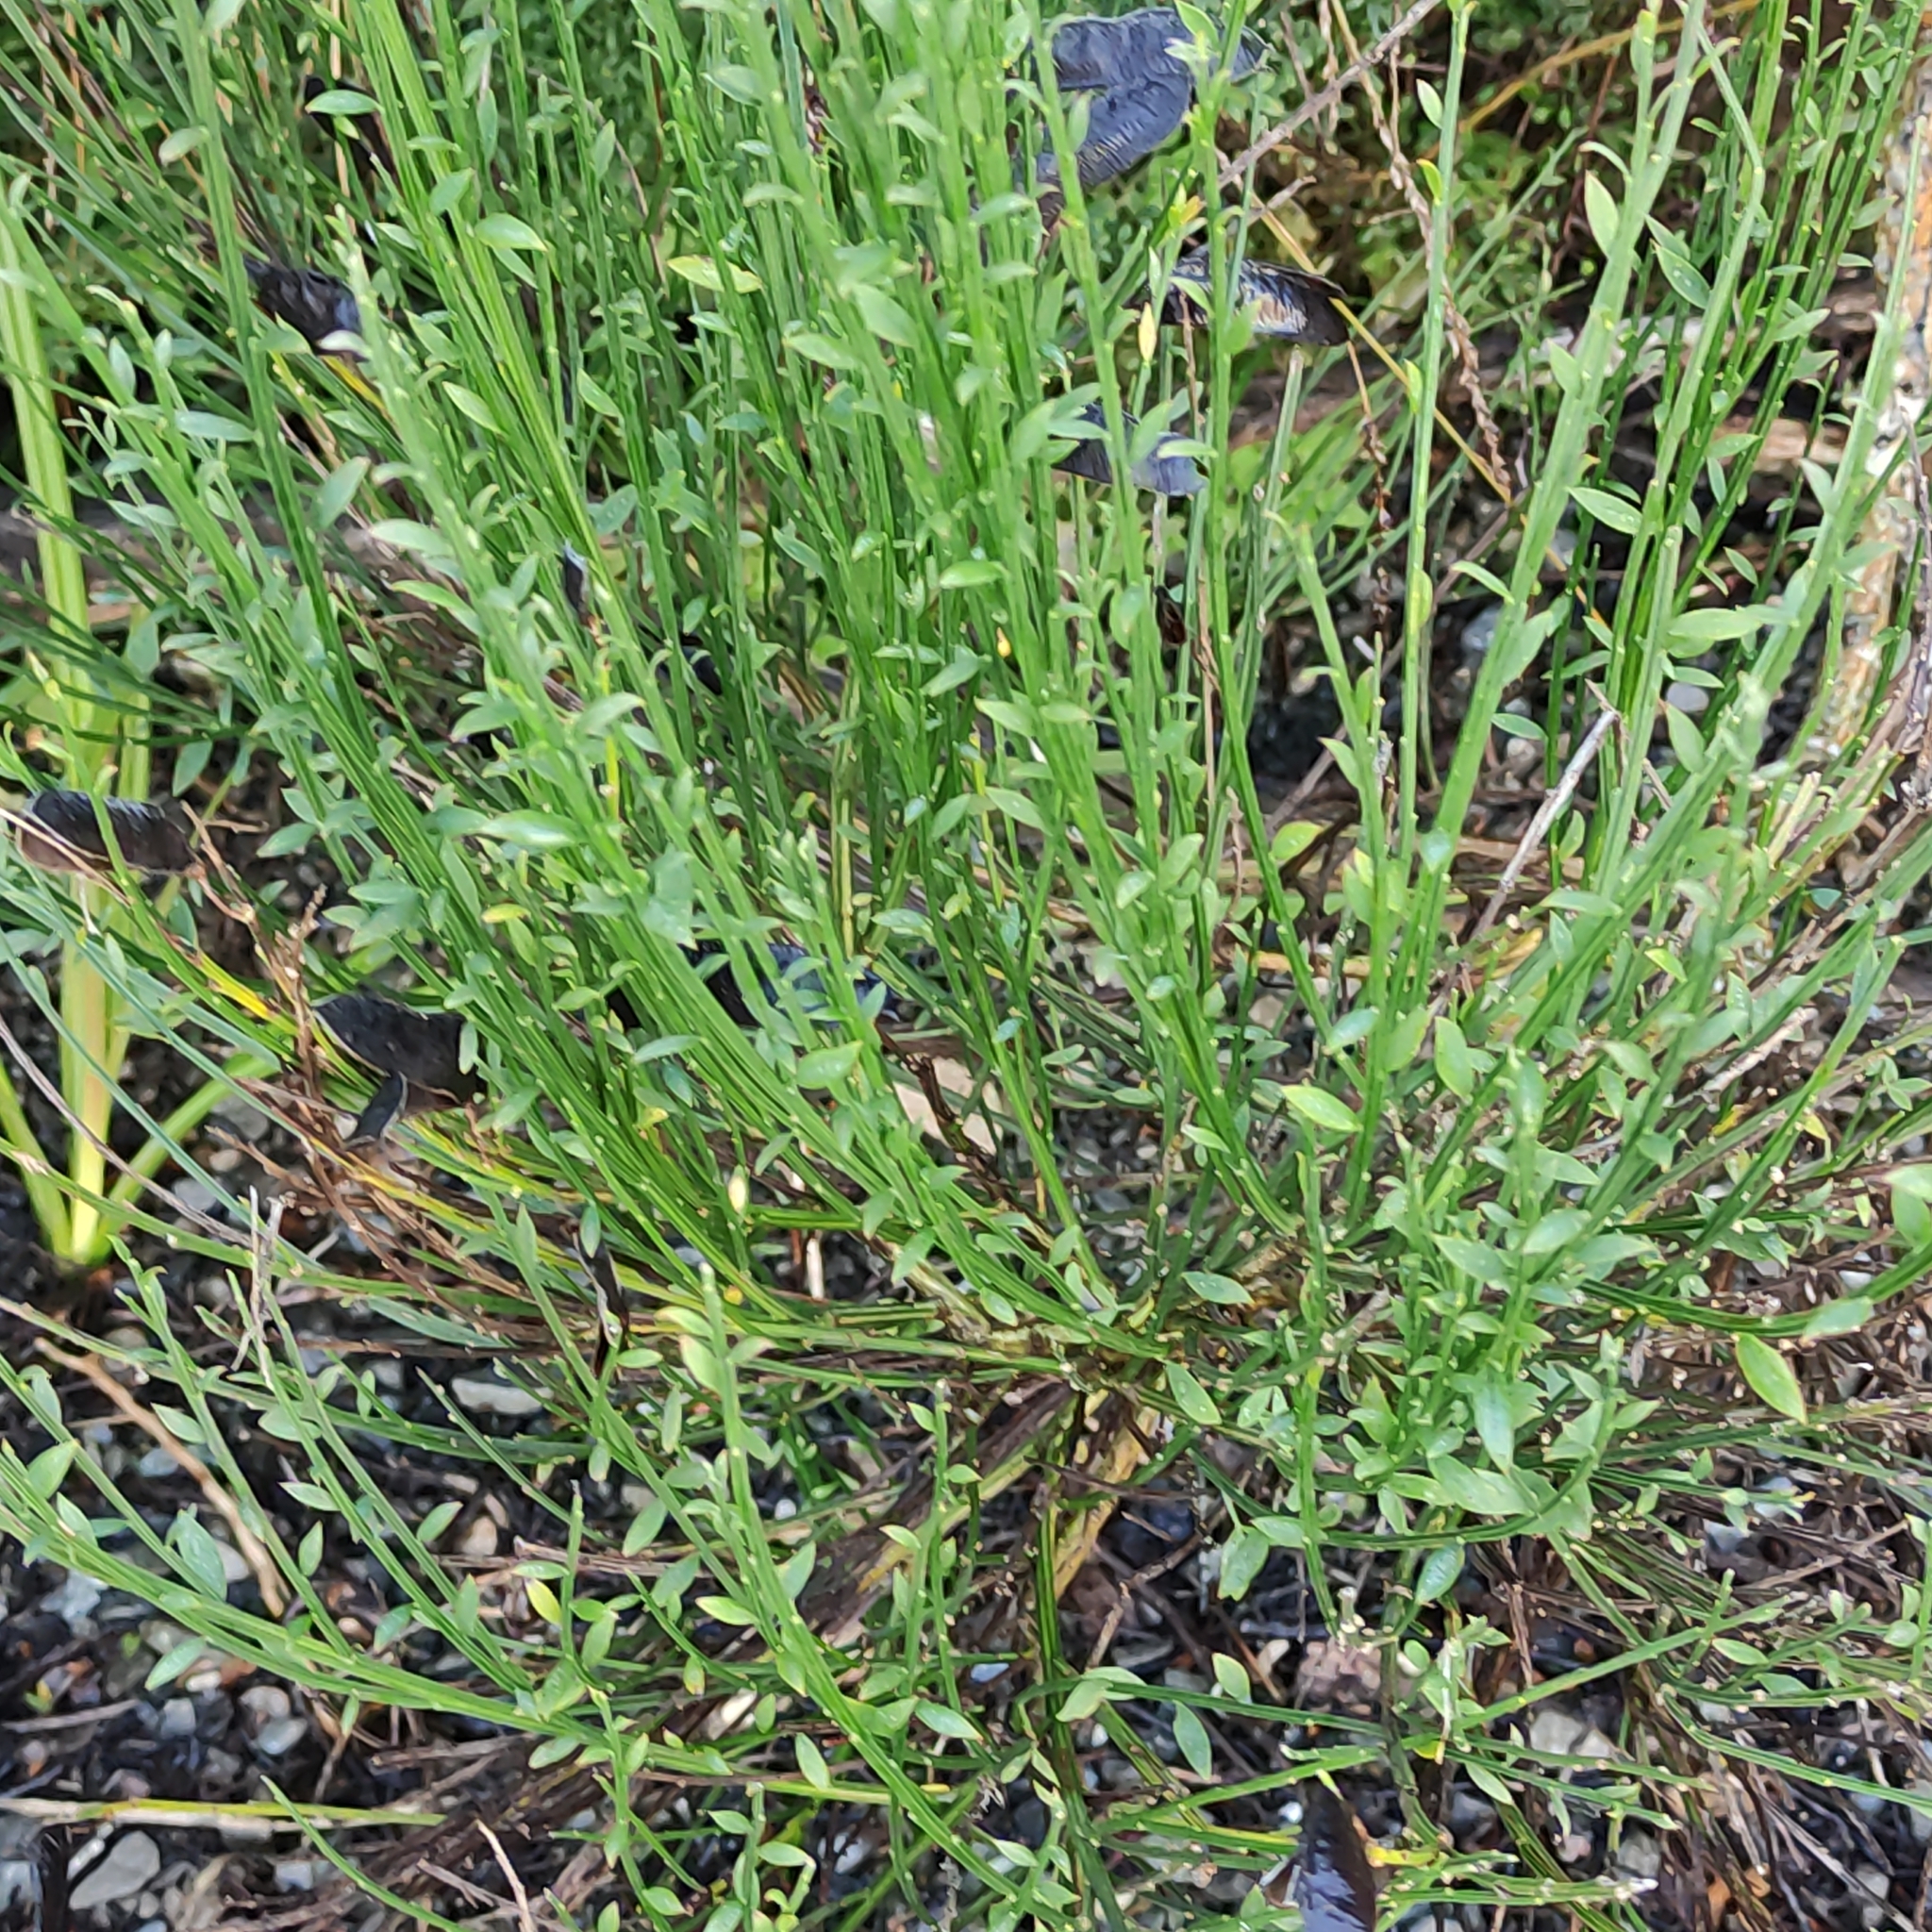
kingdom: Plantae
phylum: Tracheophyta
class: Magnoliopsida
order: Fabales
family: Fabaceae
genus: Cytisus
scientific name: Cytisus scoparius
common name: Scotch broom
